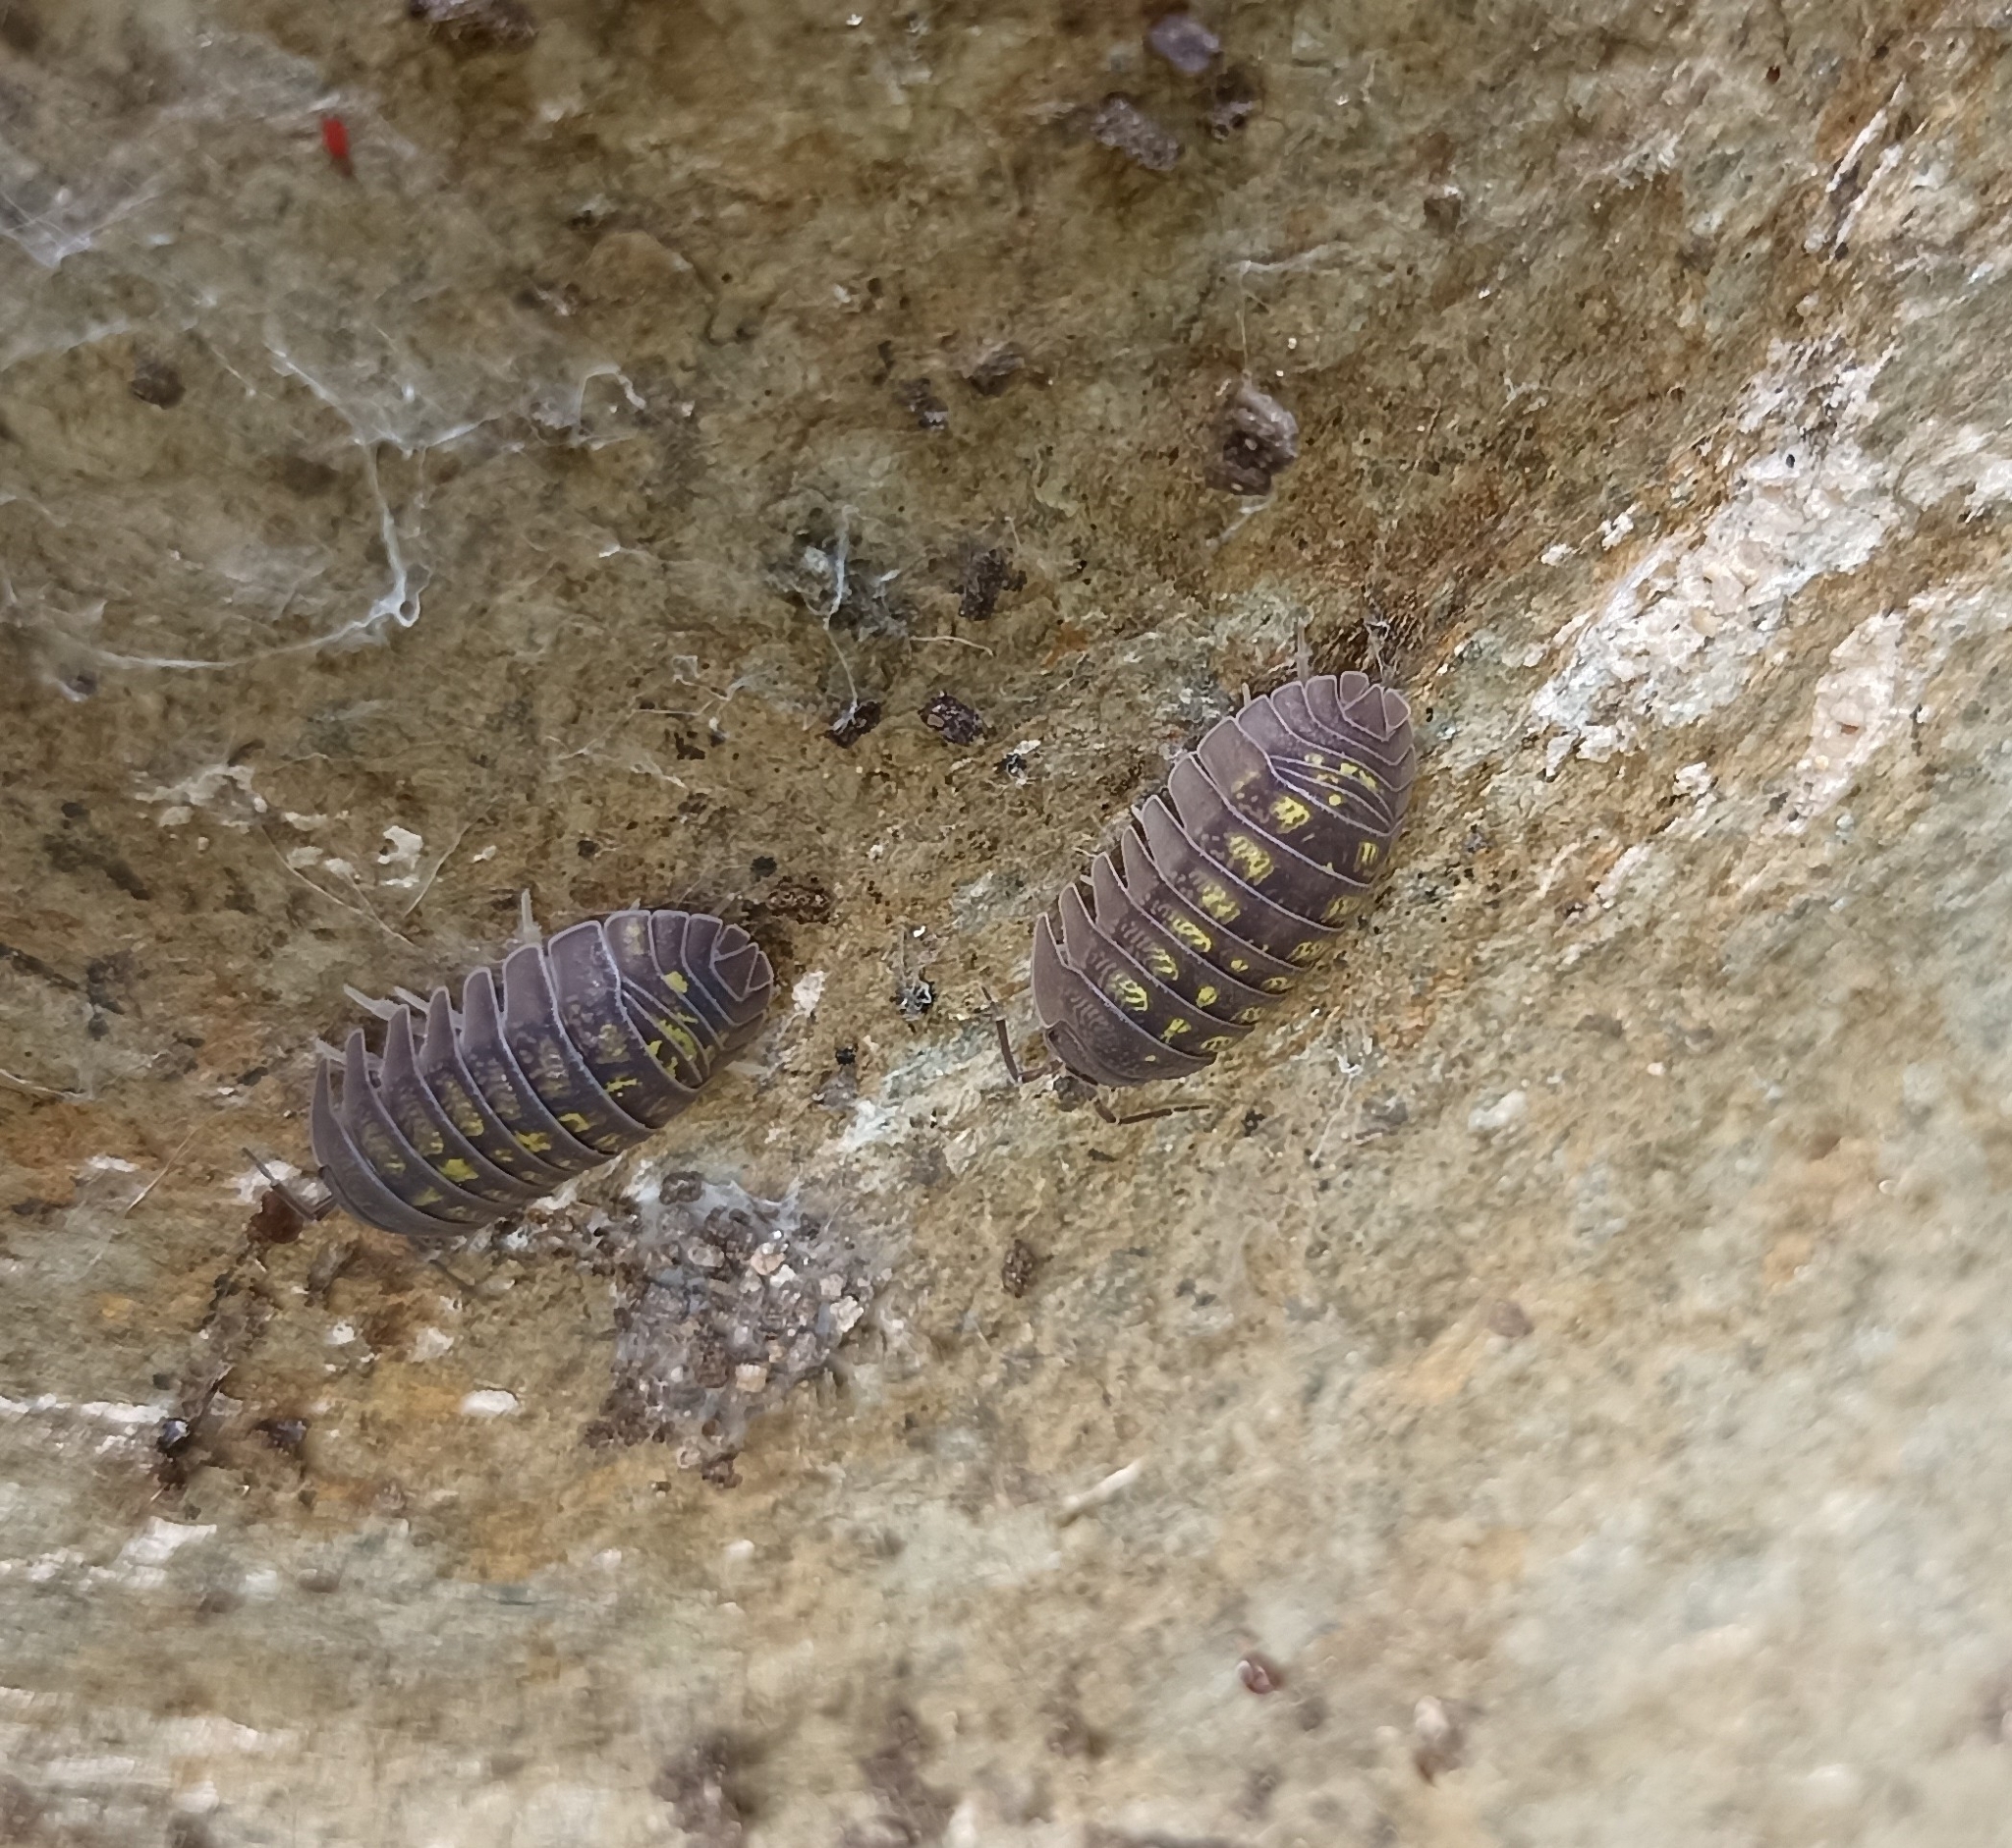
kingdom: Animalia
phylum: Arthropoda
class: Malacostraca
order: Isopoda
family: Armadillidiidae
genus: Armadillidium
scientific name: Armadillidium granulatum
